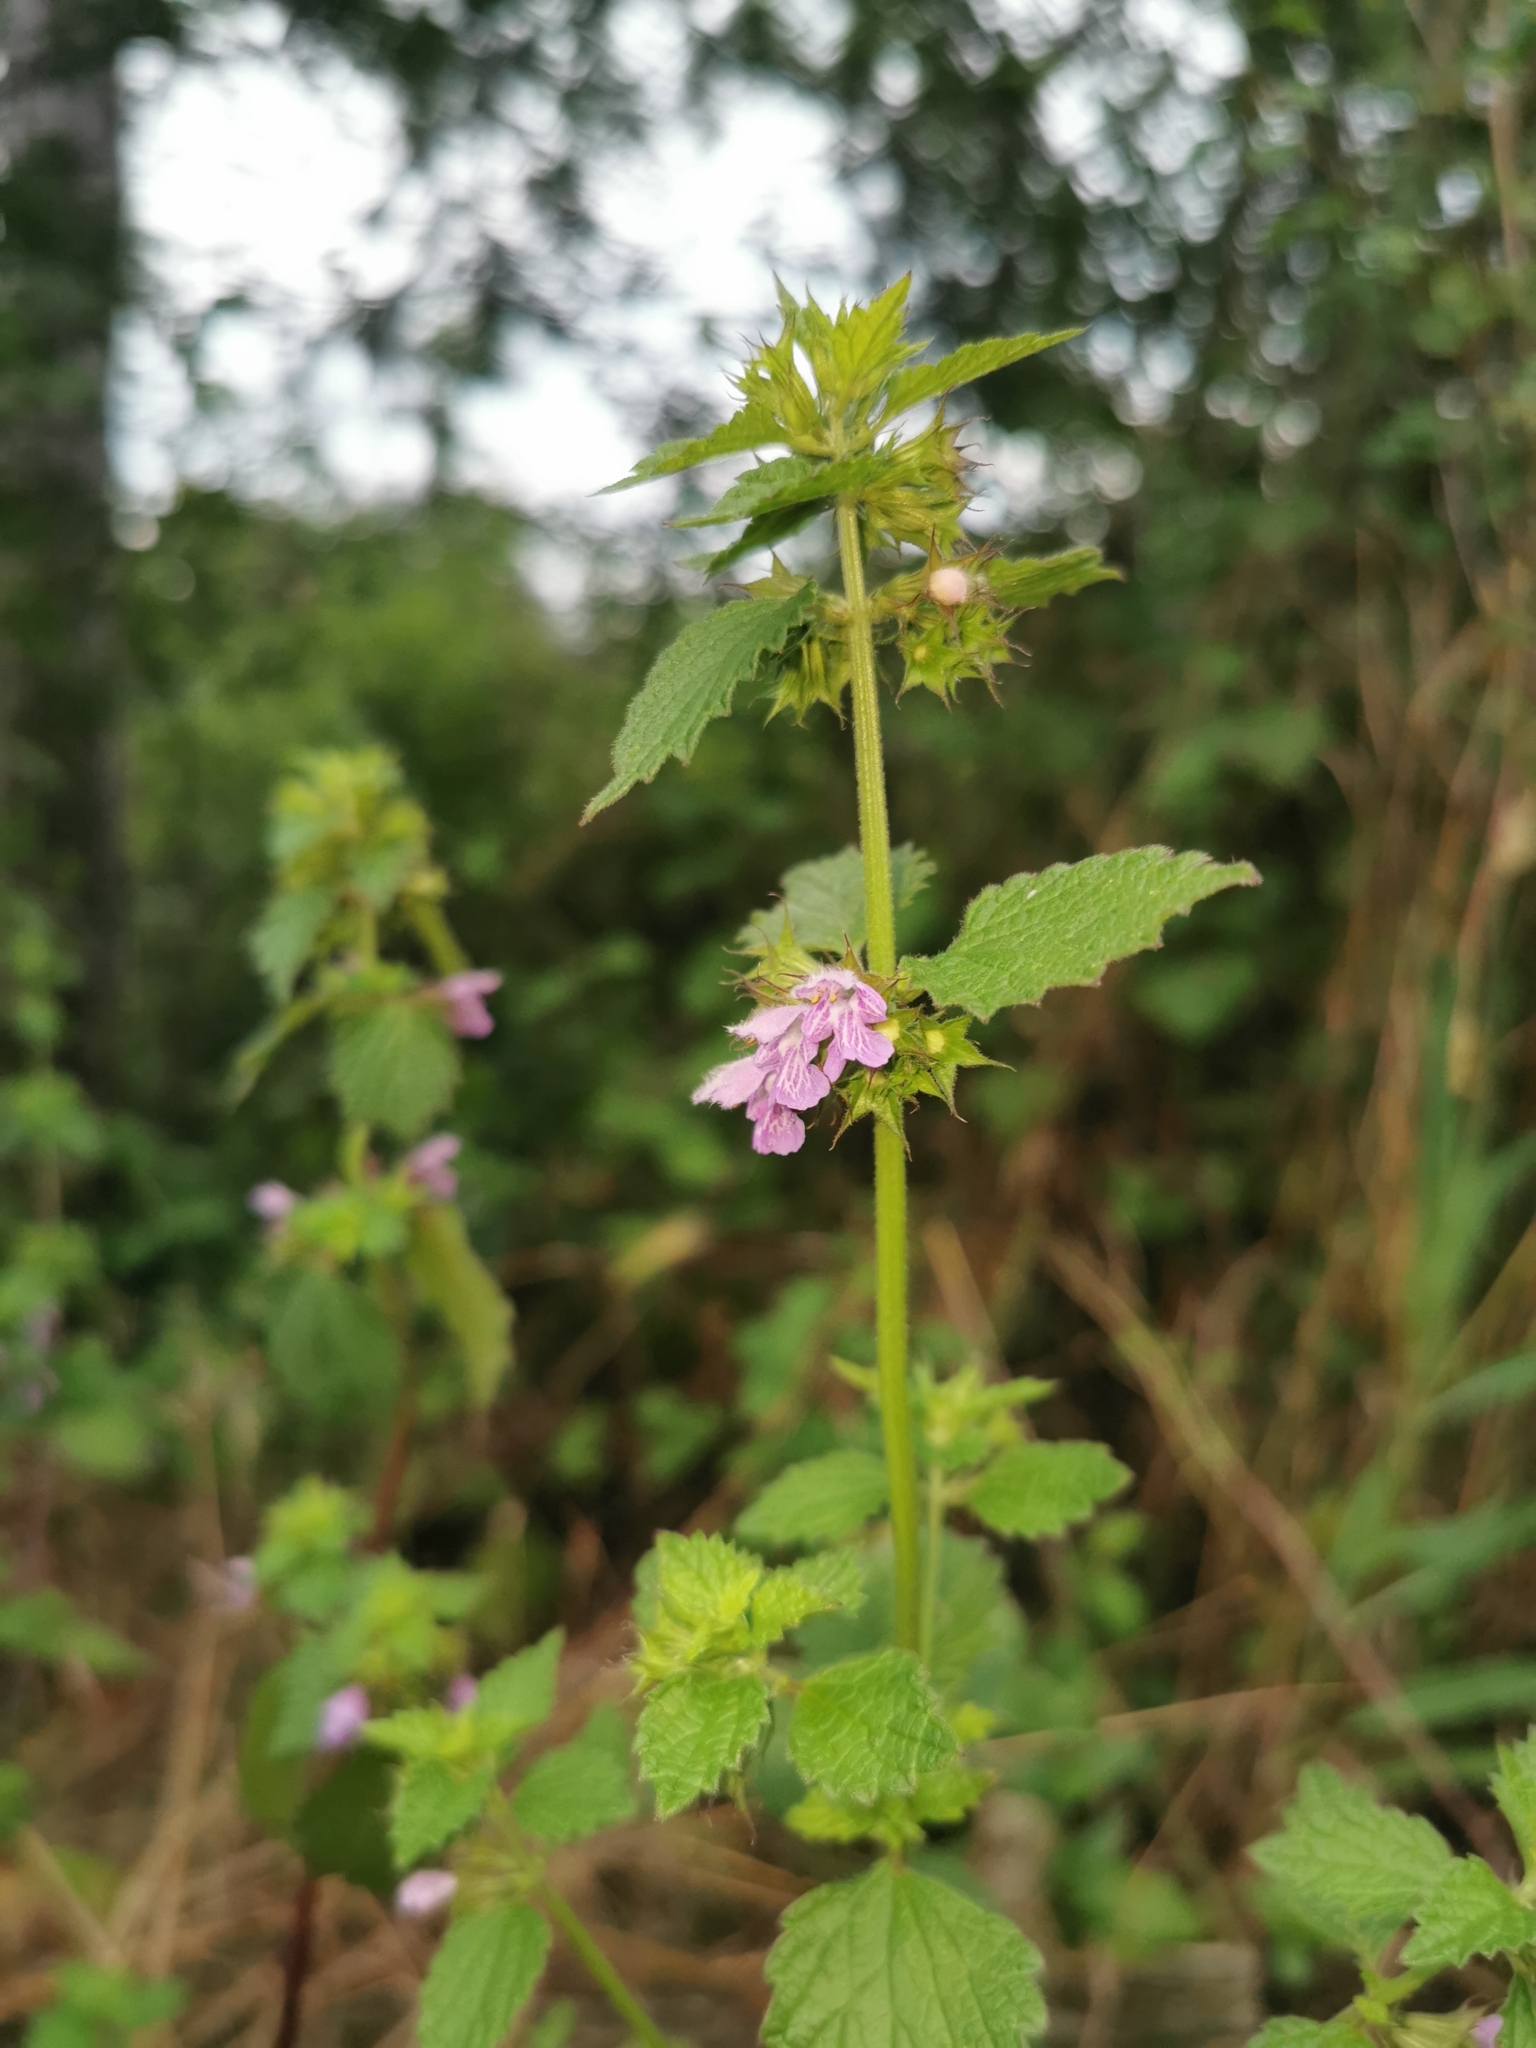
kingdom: Plantae
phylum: Tracheophyta
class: Magnoliopsida
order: Lamiales
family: Lamiaceae
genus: Ballota
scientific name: Ballota nigra
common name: Black horehound
